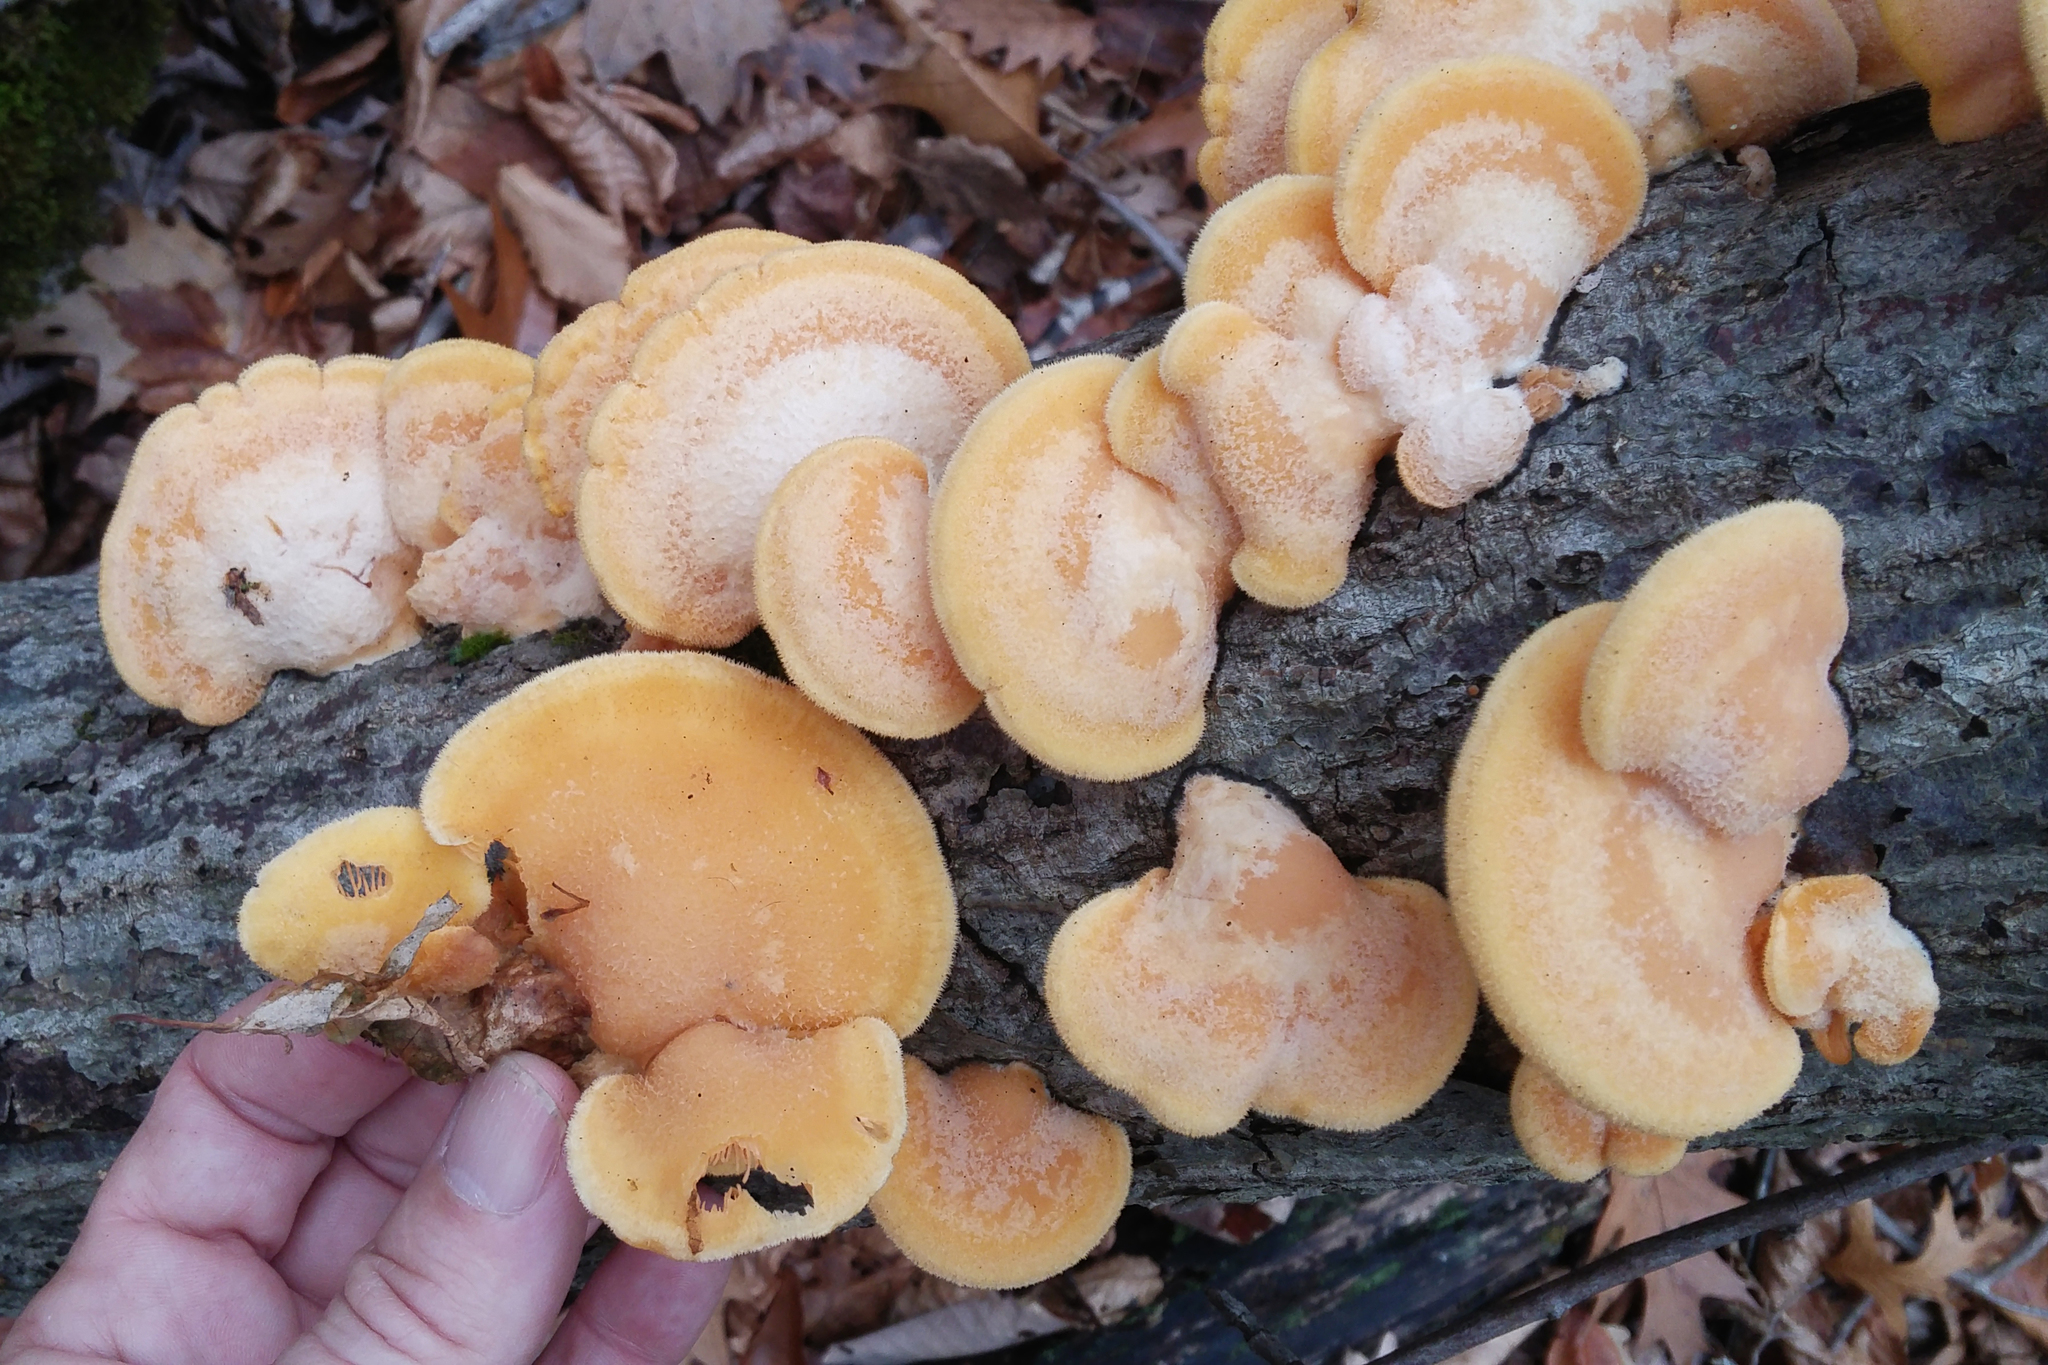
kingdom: Fungi
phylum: Basidiomycota
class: Agaricomycetes
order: Agaricales
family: Phyllotopsidaceae
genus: Phyllotopsis
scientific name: Phyllotopsis nidulans
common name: Orange mock oyster
